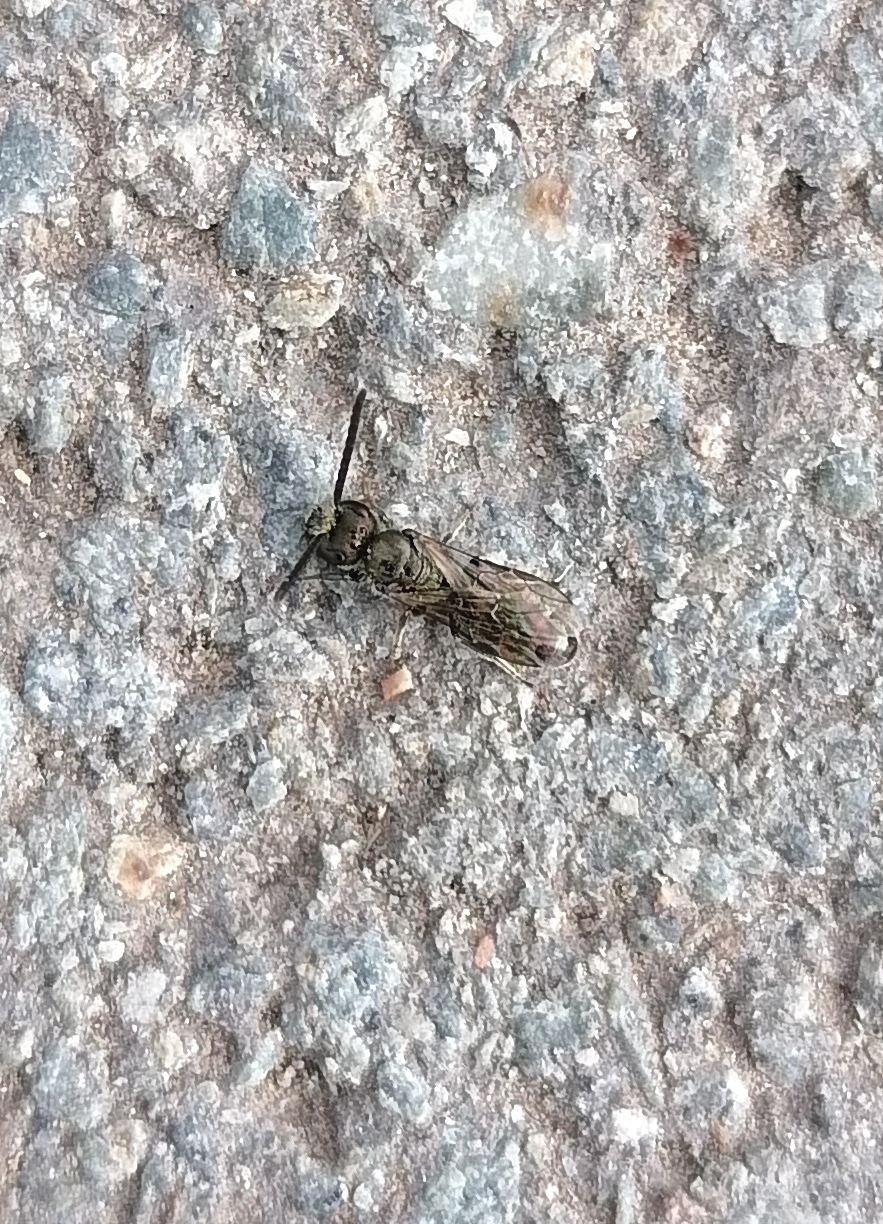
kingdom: Animalia
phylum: Arthropoda
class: Insecta
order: Hymenoptera
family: Halictidae
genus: Lasioglossum
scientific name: Lasioglossum
